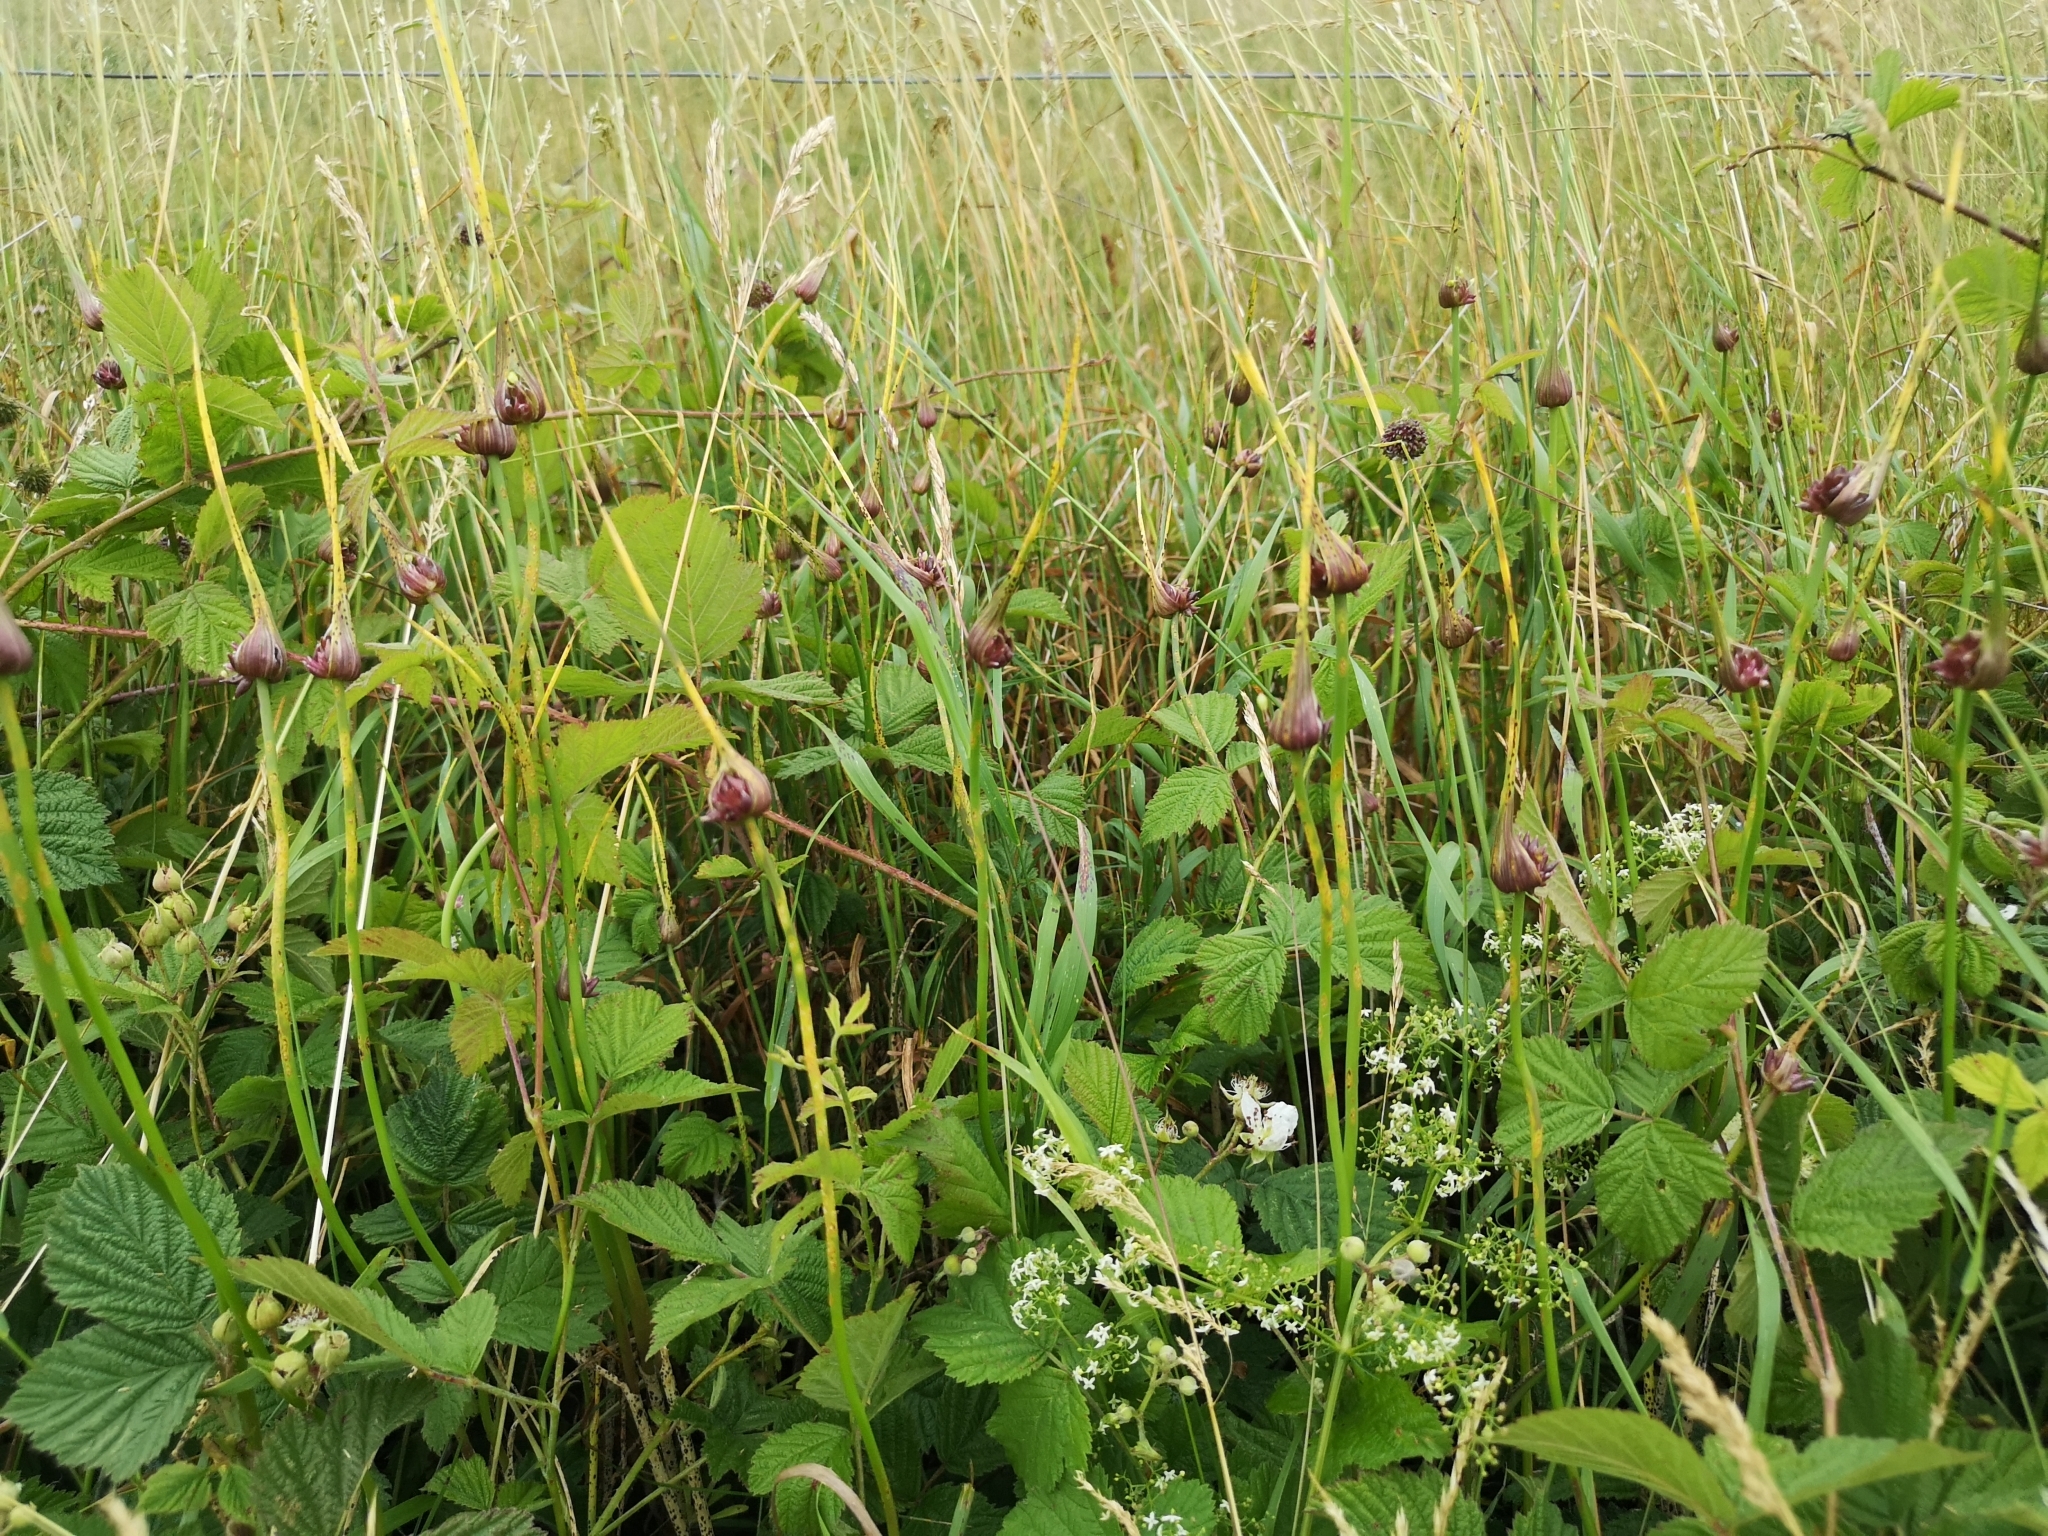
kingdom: Plantae
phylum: Tracheophyta
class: Liliopsida
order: Asparagales
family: Amaryllidaceae
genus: Allium
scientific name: Allium oleraceum
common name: Field garlic
